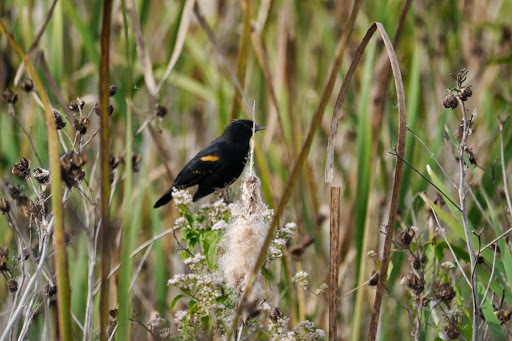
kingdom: Animalia
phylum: Chordata
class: Aves
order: Passeriformes
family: Icteridae
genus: Agelaius
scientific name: Agelaius phoeniceus
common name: Red-winged blackbird
